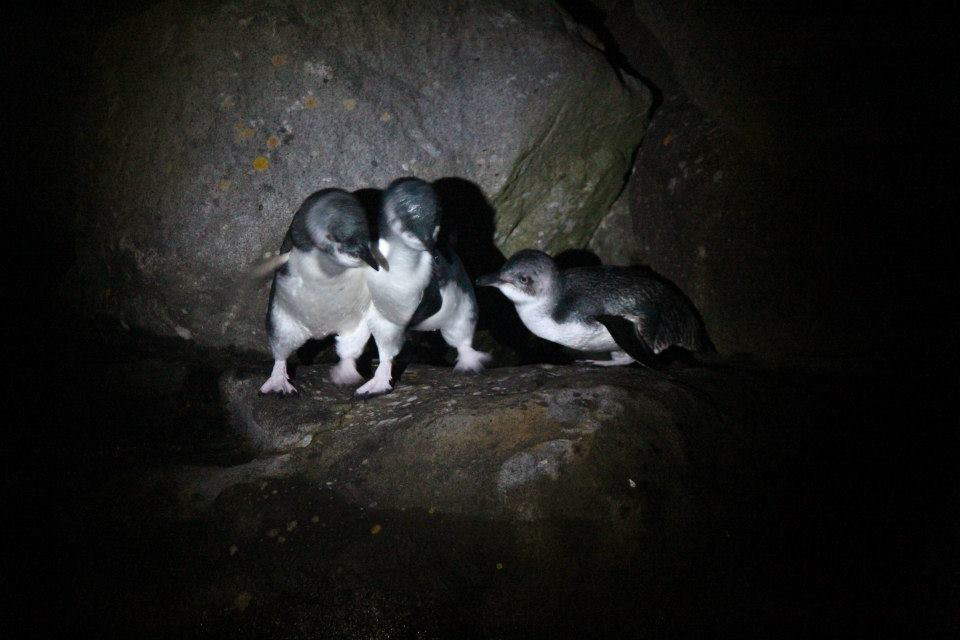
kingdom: Animalia
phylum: Chordata
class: Aves
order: Sphenisciformes
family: Spheniscidae
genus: Eudyptula
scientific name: Eudyptula minor
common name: Little penguin
